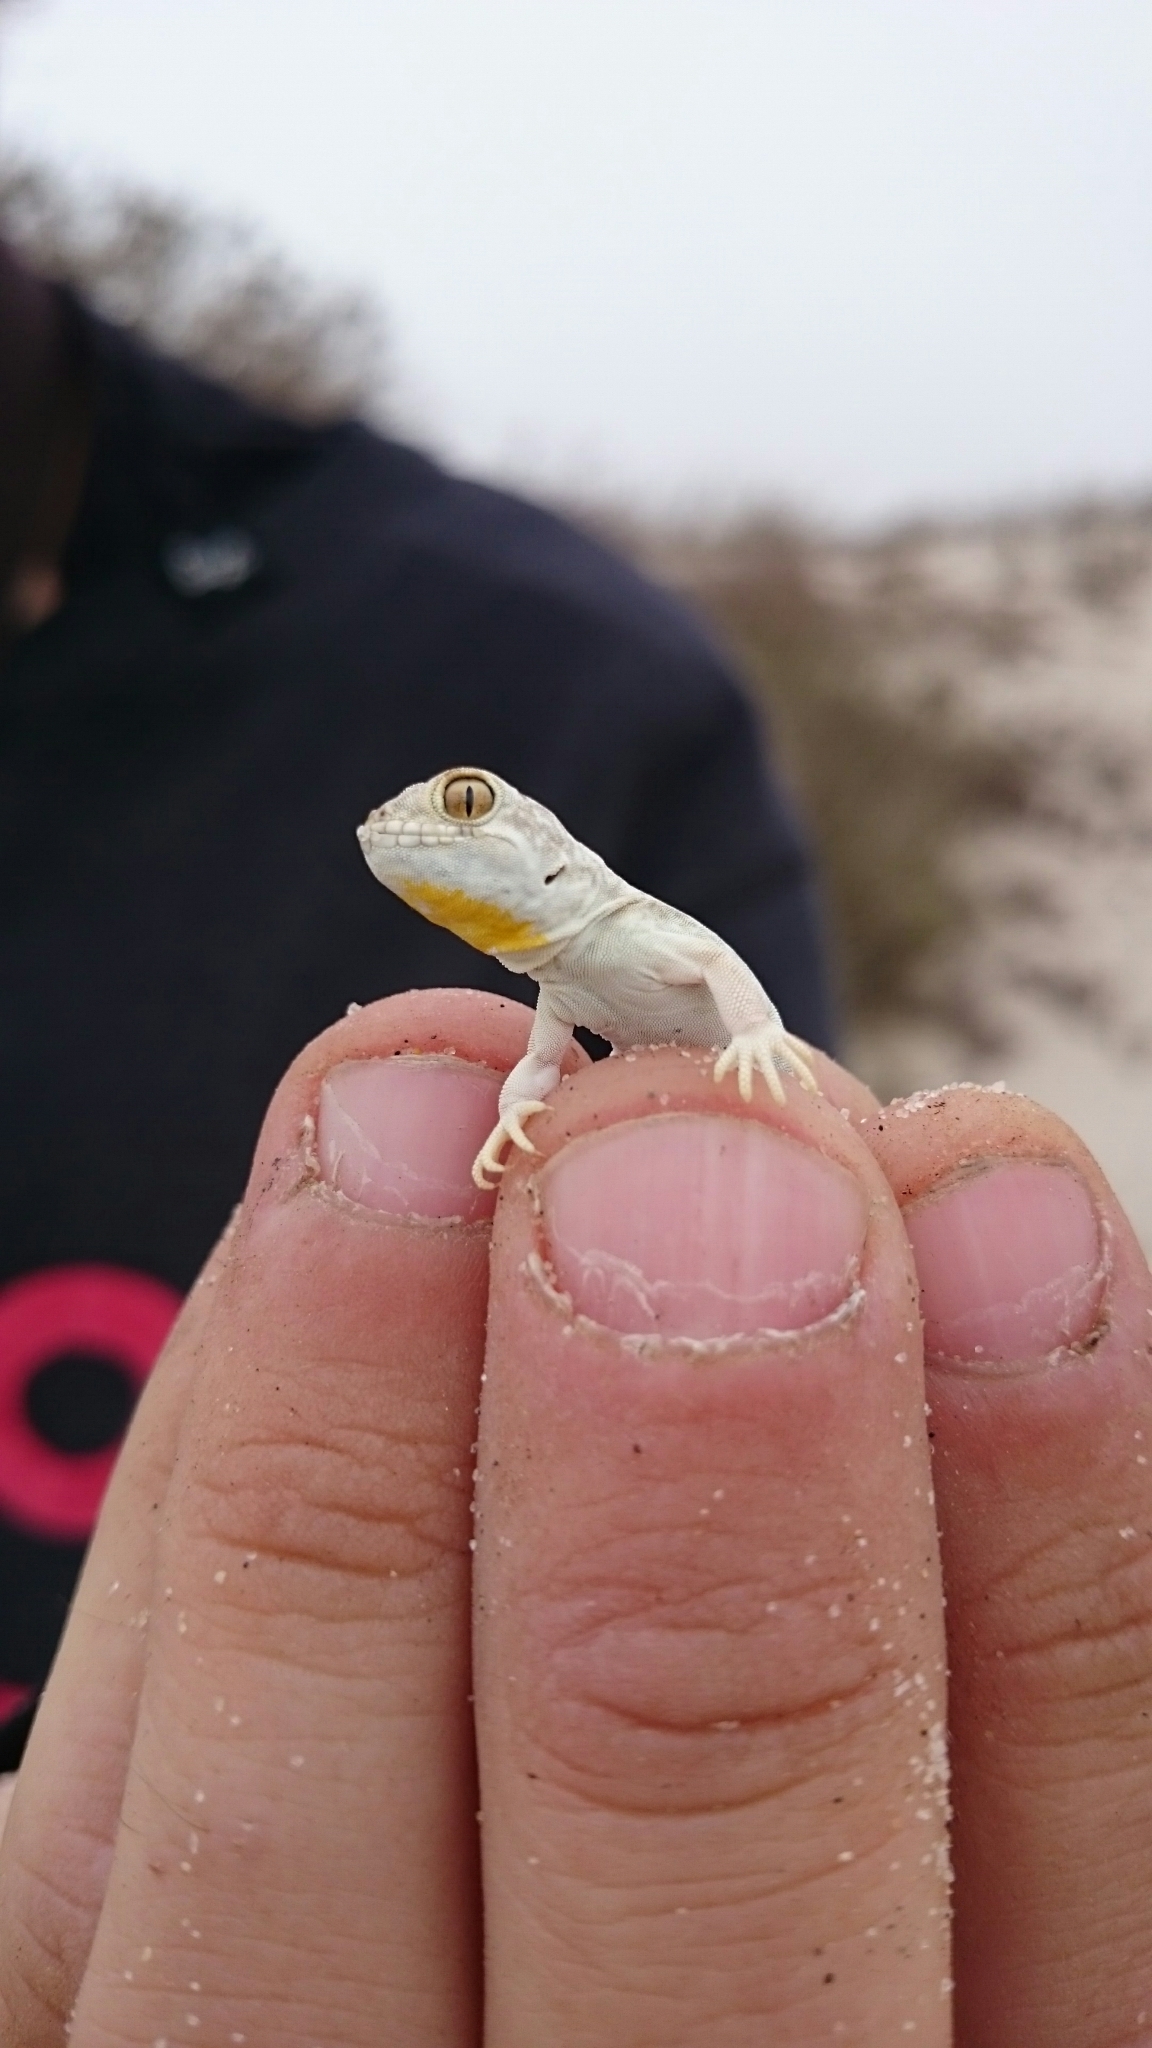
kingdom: Animalia
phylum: Chordata
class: Squamata
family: Gekkonidae
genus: Ptenopus
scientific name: Ptenopus garrulus
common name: Whistling gecko
